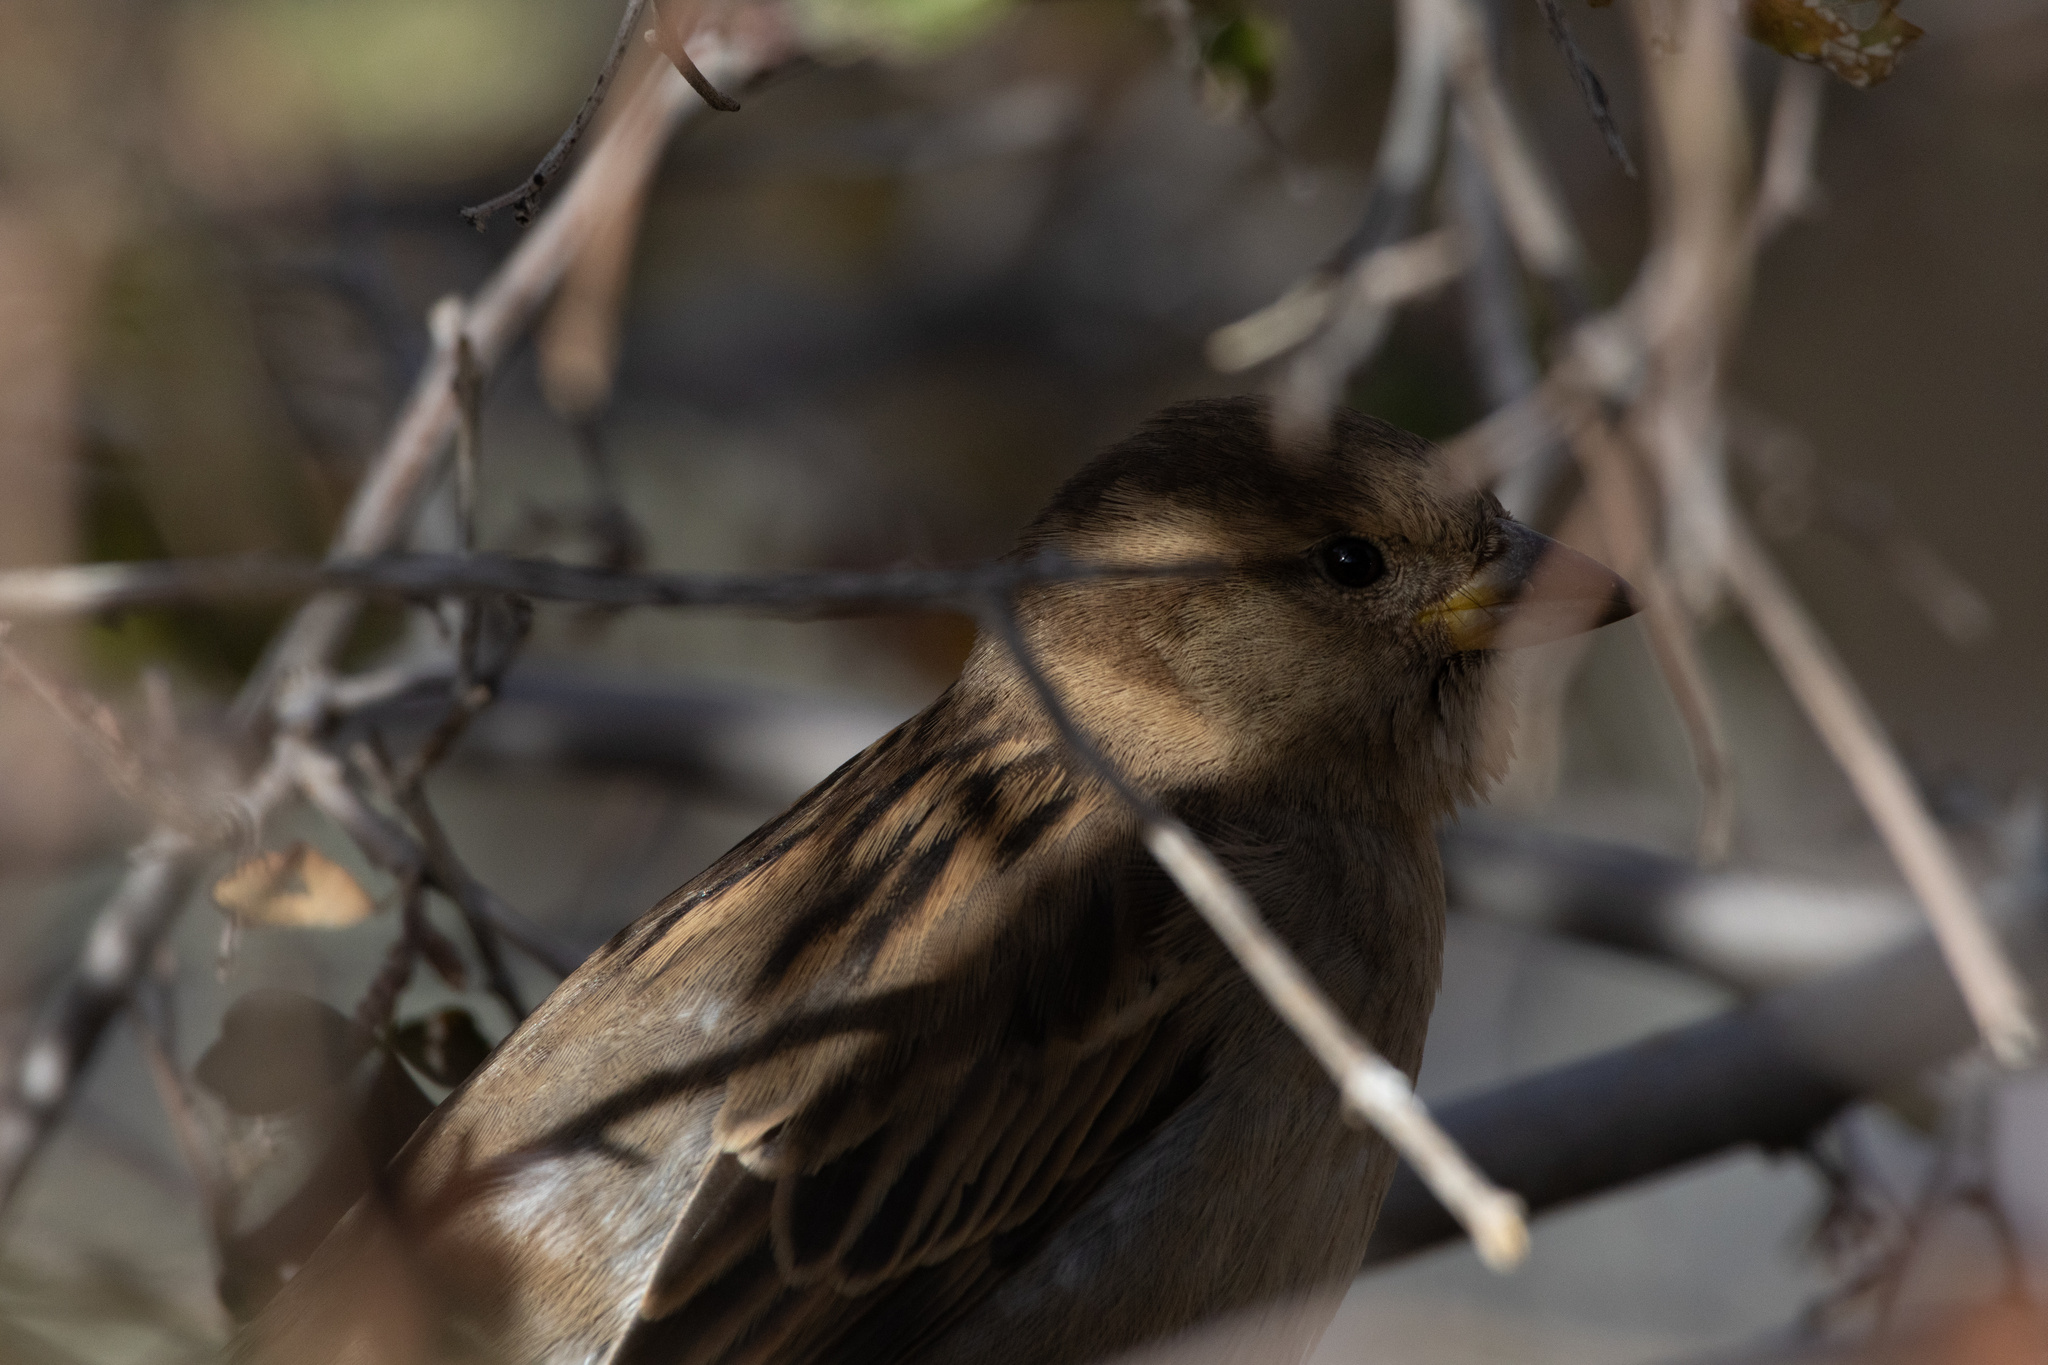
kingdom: Animalia
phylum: Chordata
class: Aves
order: Passeriformes
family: Passeridae
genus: Passer
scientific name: Passer domesticus
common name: House sparrow
